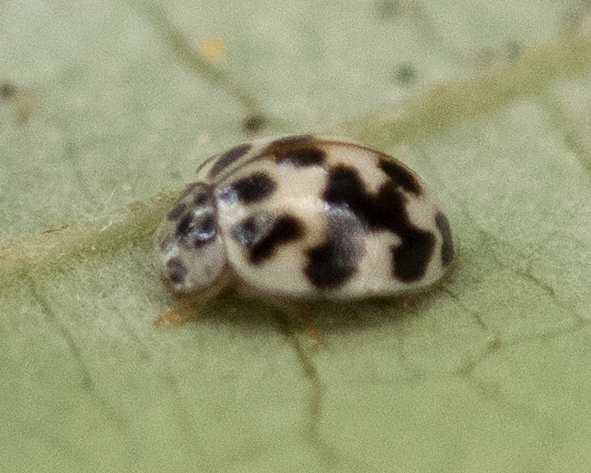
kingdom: Animalia
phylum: Arthropoda
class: Insecta
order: Coleoptera
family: Coccinellidae
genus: Psyllobora
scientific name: Psyllobora vigintimaculata
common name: Ladybird beetle
